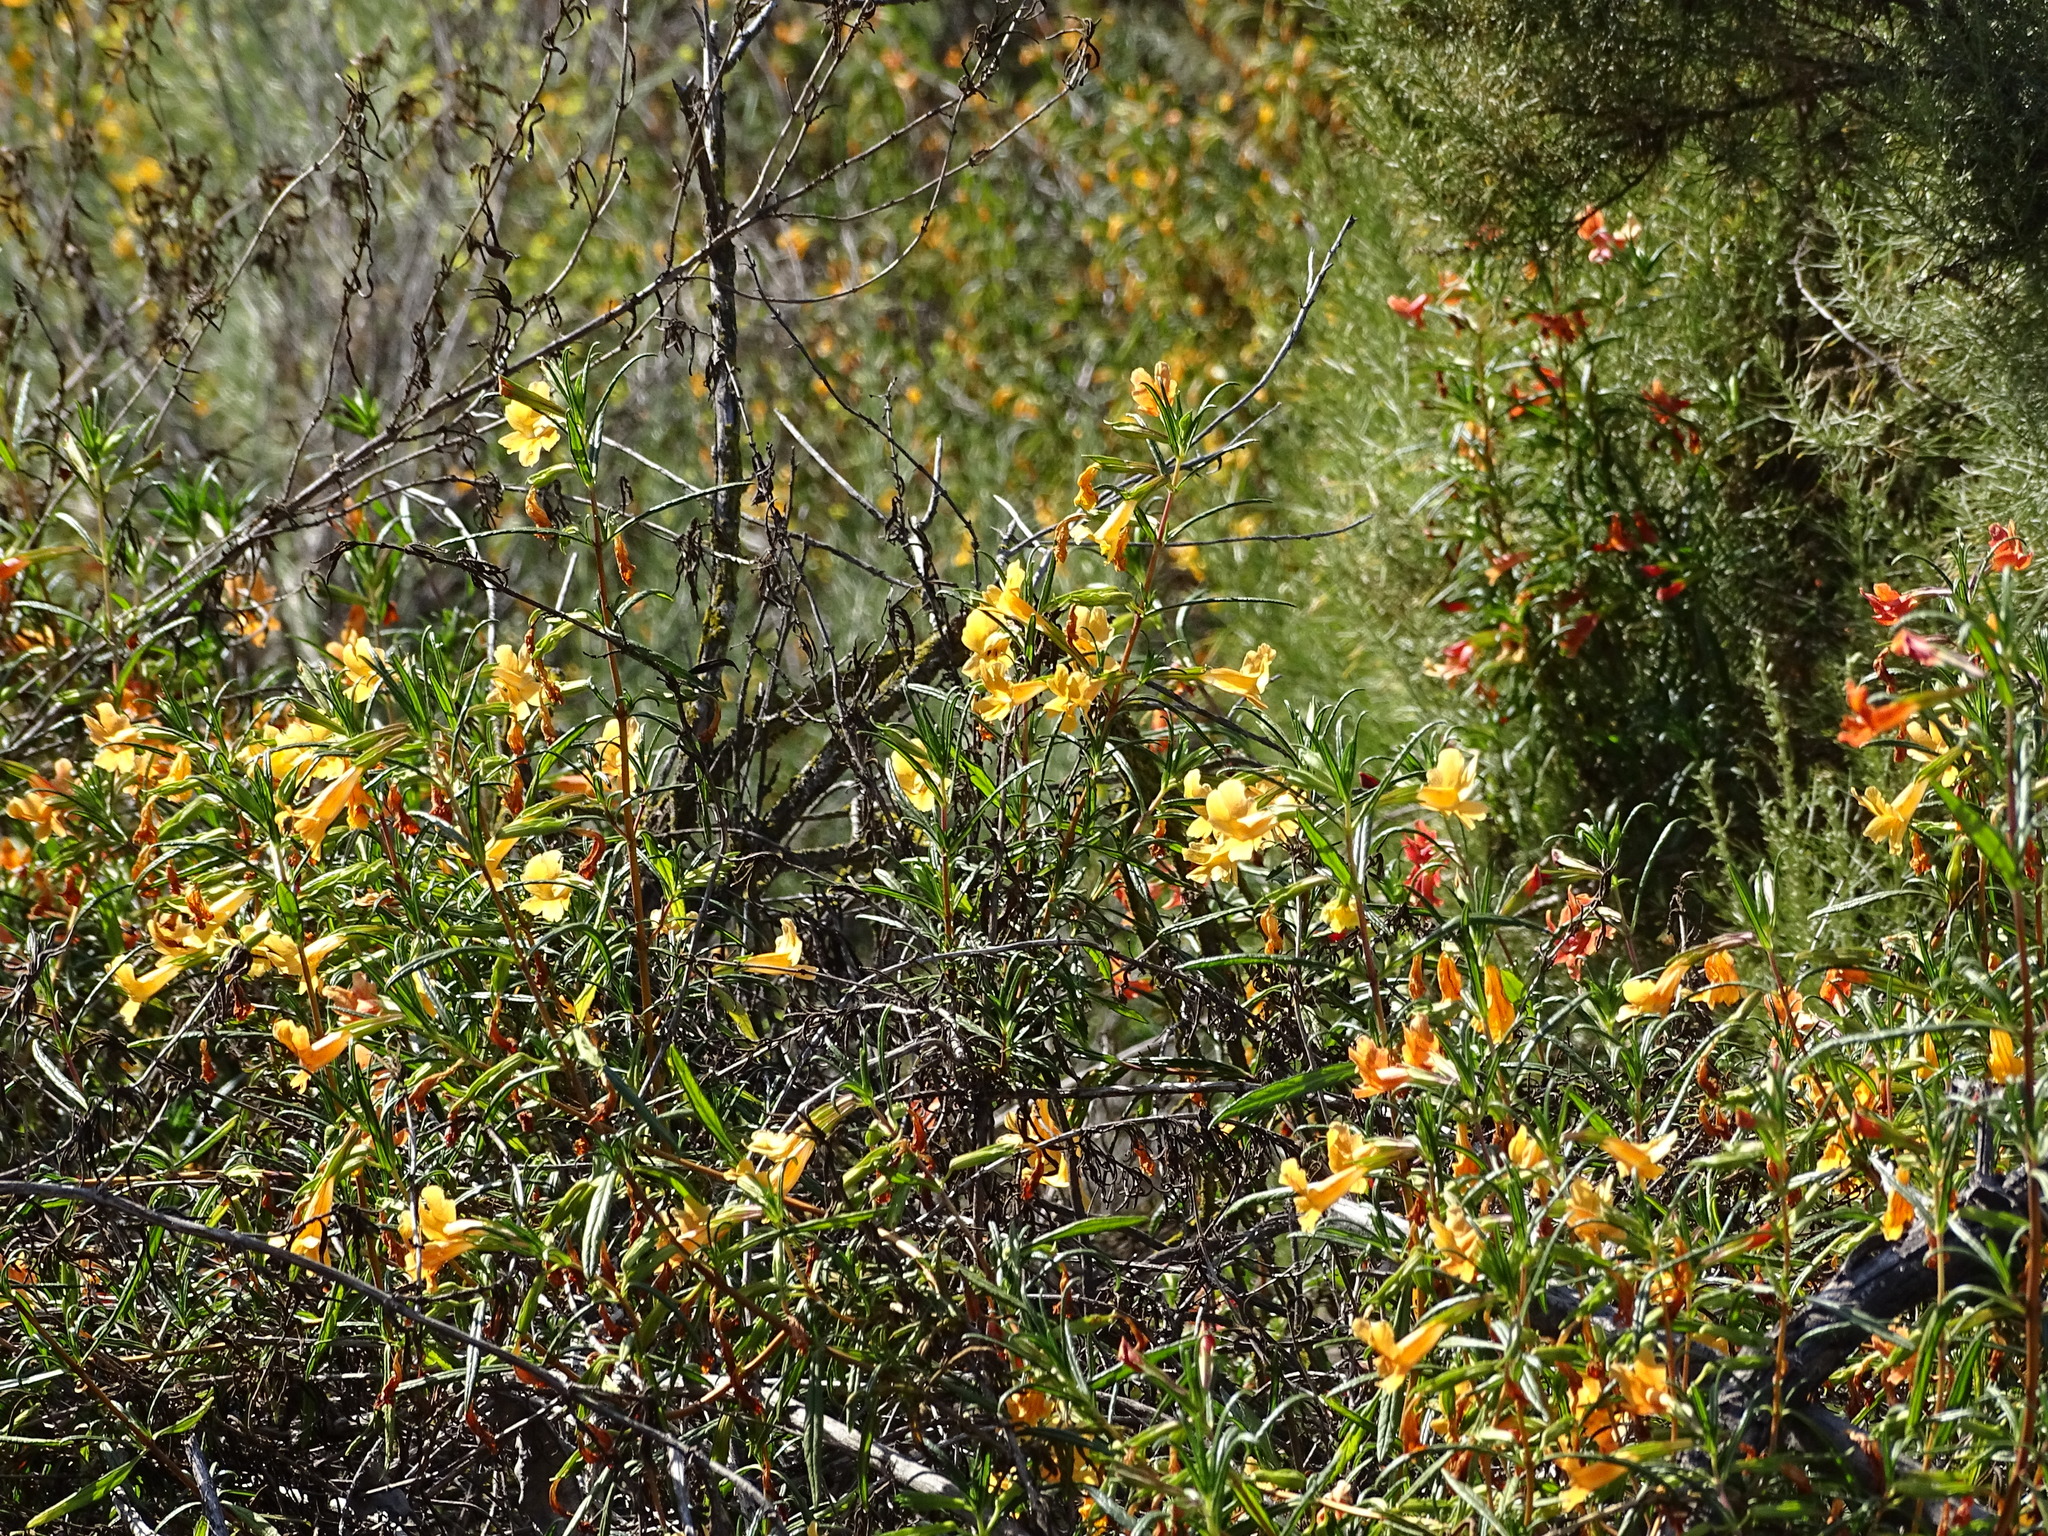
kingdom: Plantae
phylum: Tracheophyta
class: Magnoliopsida
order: Lamiales
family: Phrymaceae
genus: Diplacus
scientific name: Diplacus australis
